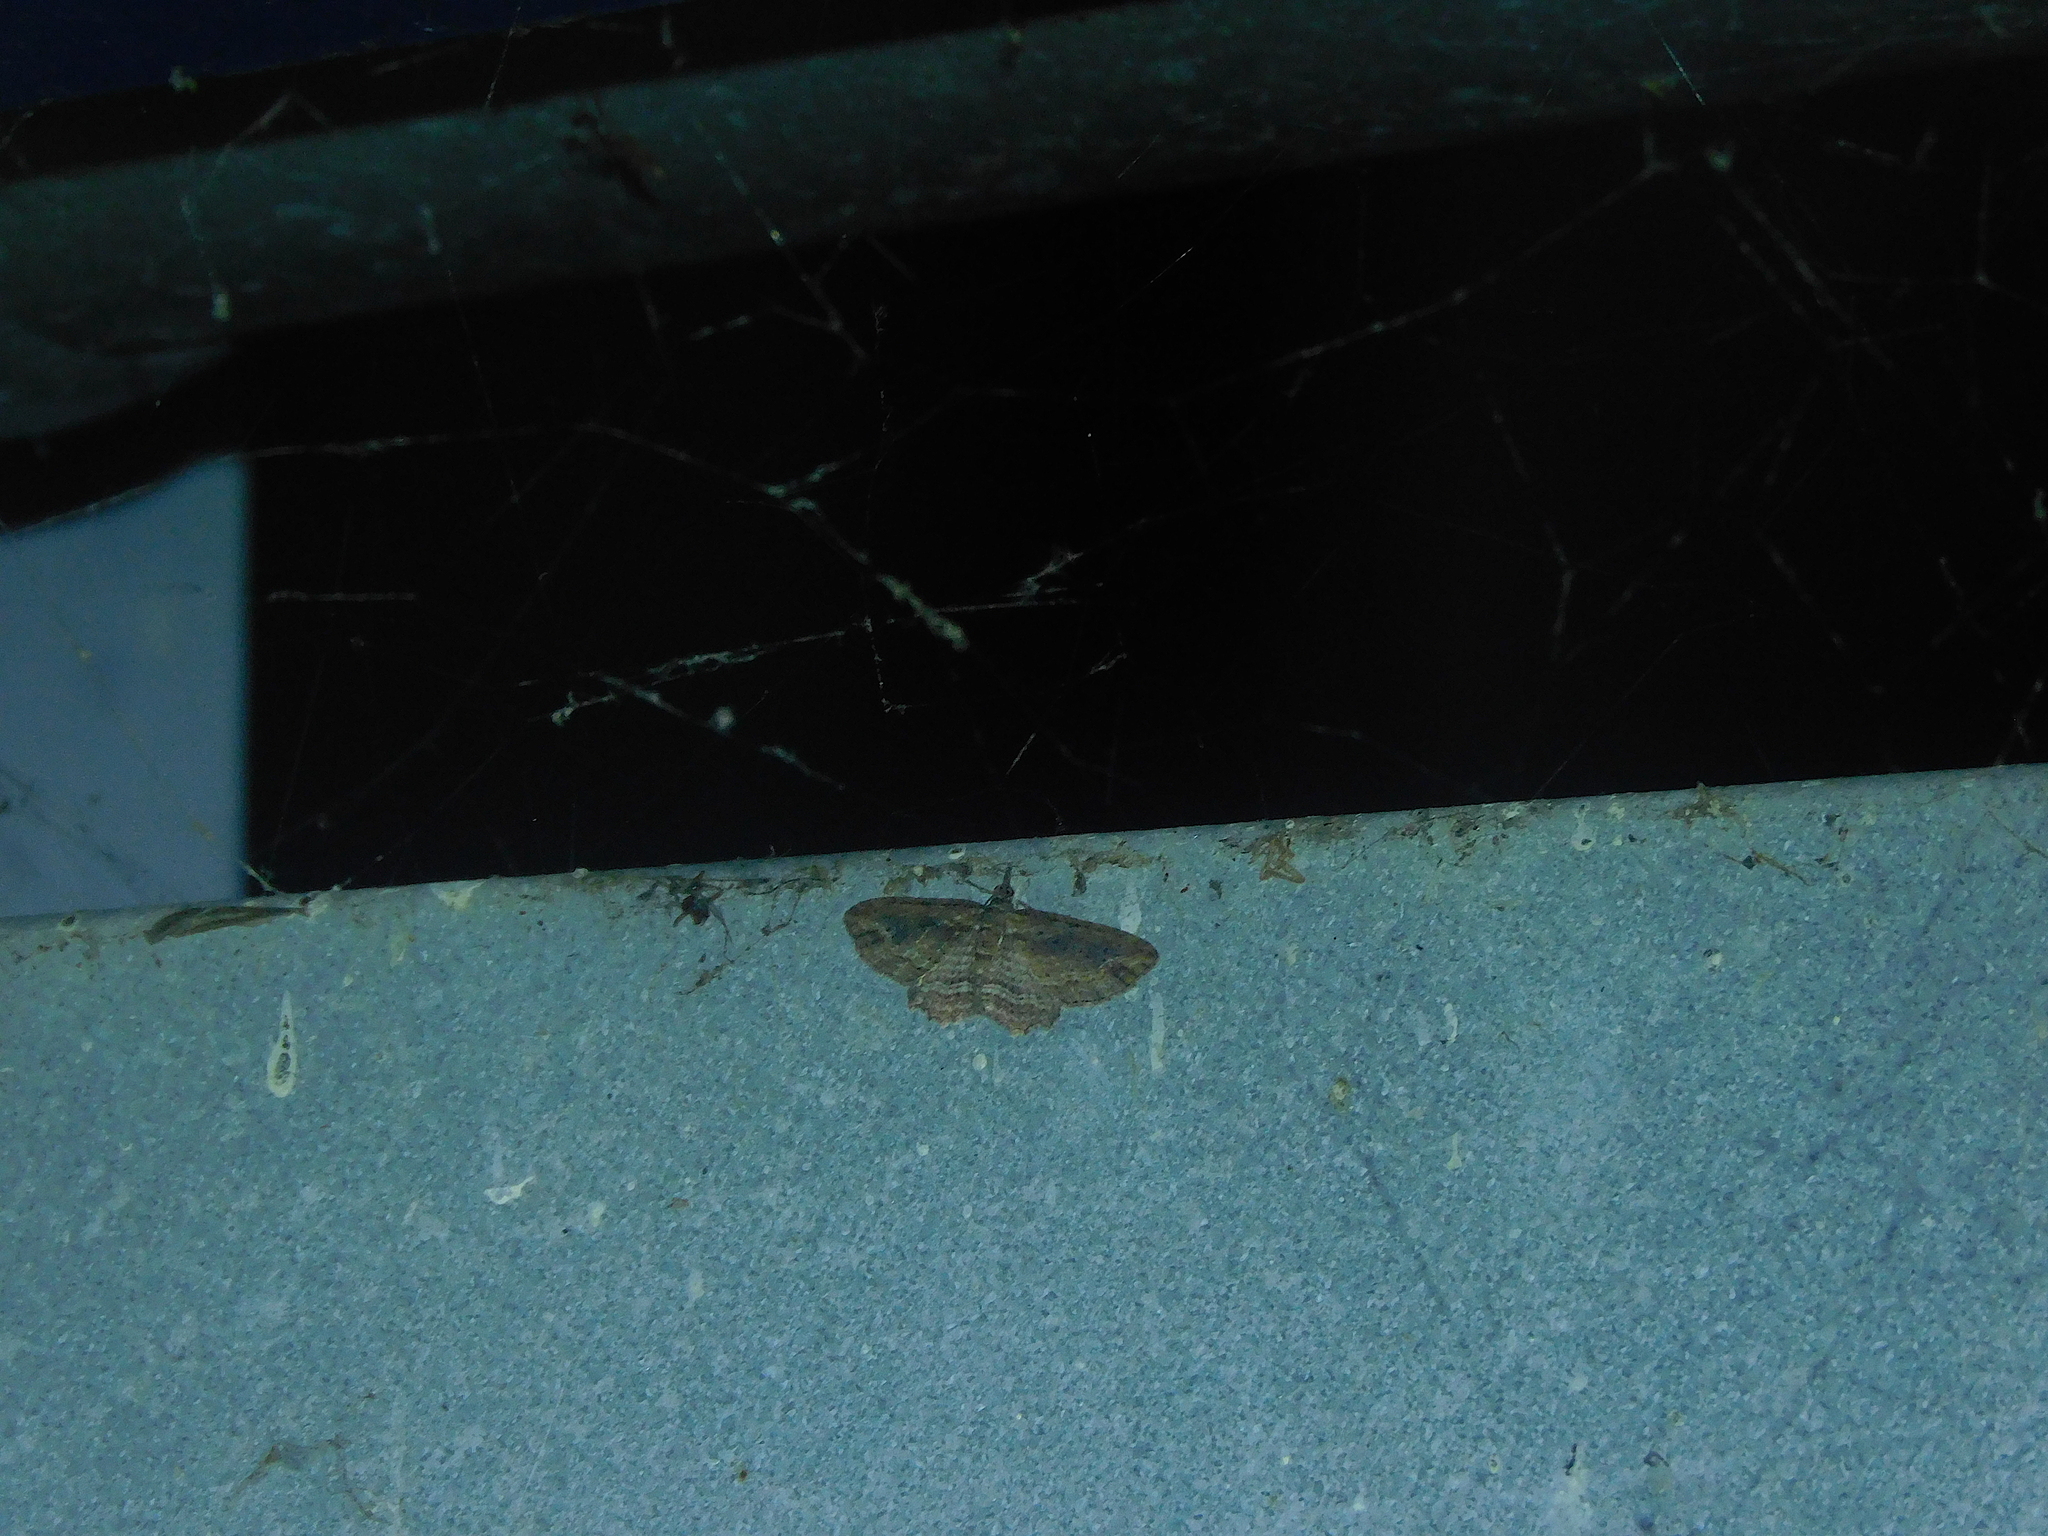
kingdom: Animalia
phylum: Arthropoda
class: Insecta
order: Lepidoptera
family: Geometridae
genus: Chloroclystis
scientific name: Chloroclystis filata
